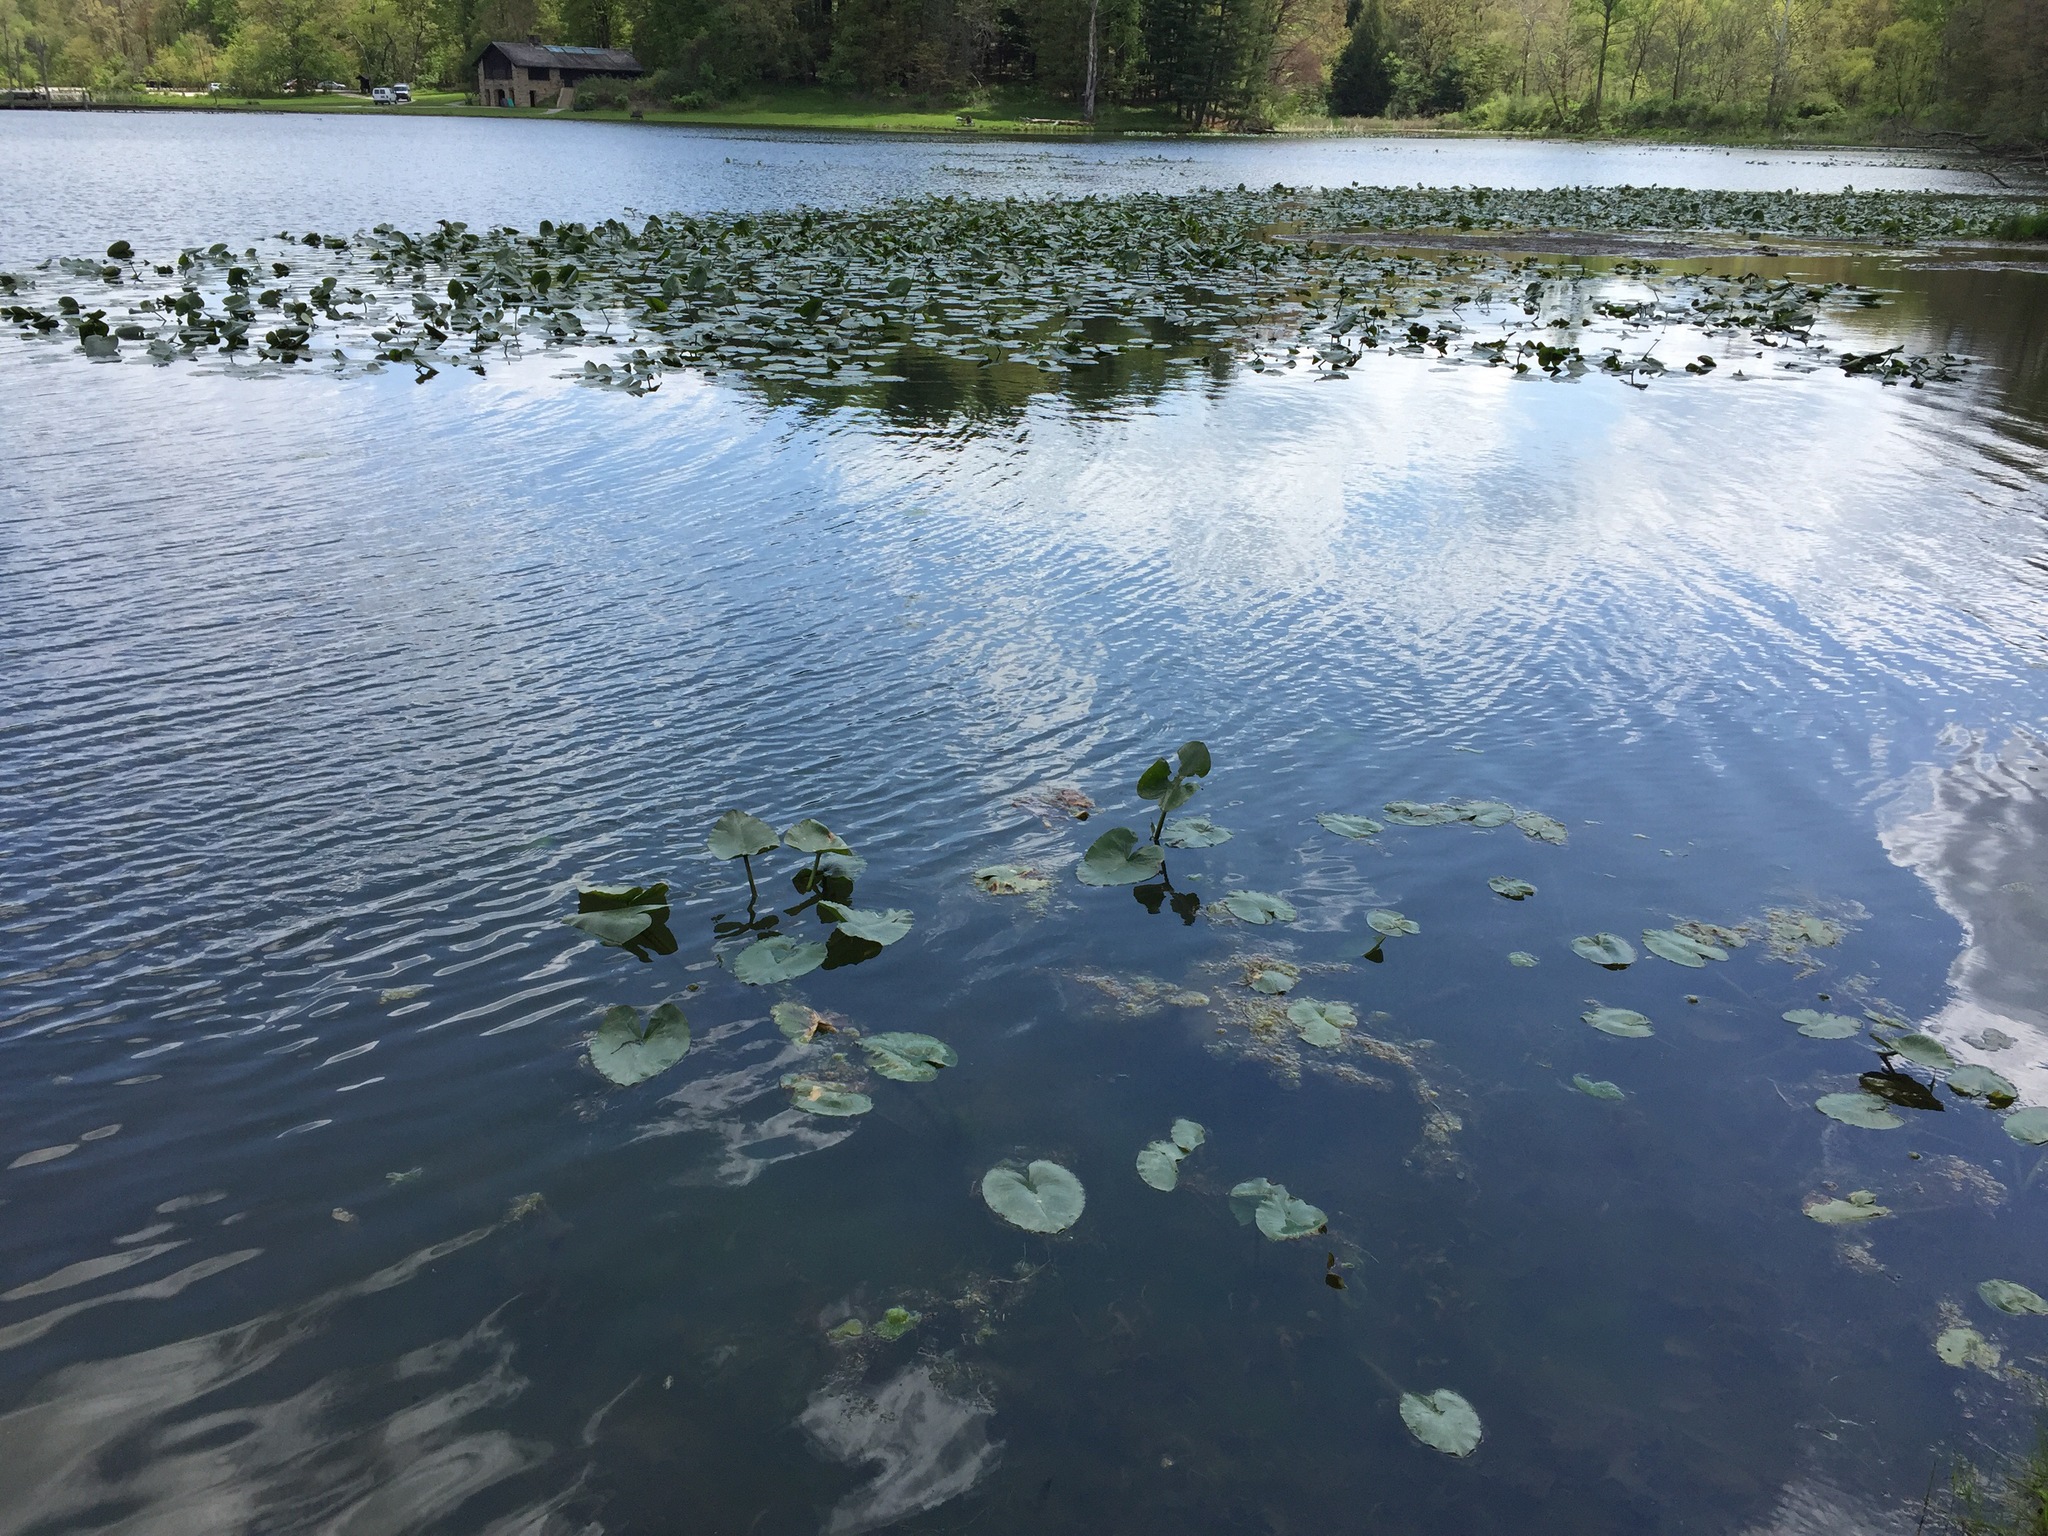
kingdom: Plantae
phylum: Tracheophyta
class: Magnoliopsida
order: Nymphaeales
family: Nymphaeaceae
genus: Nuphar
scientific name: Nuphar advena
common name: Spatter-dock
